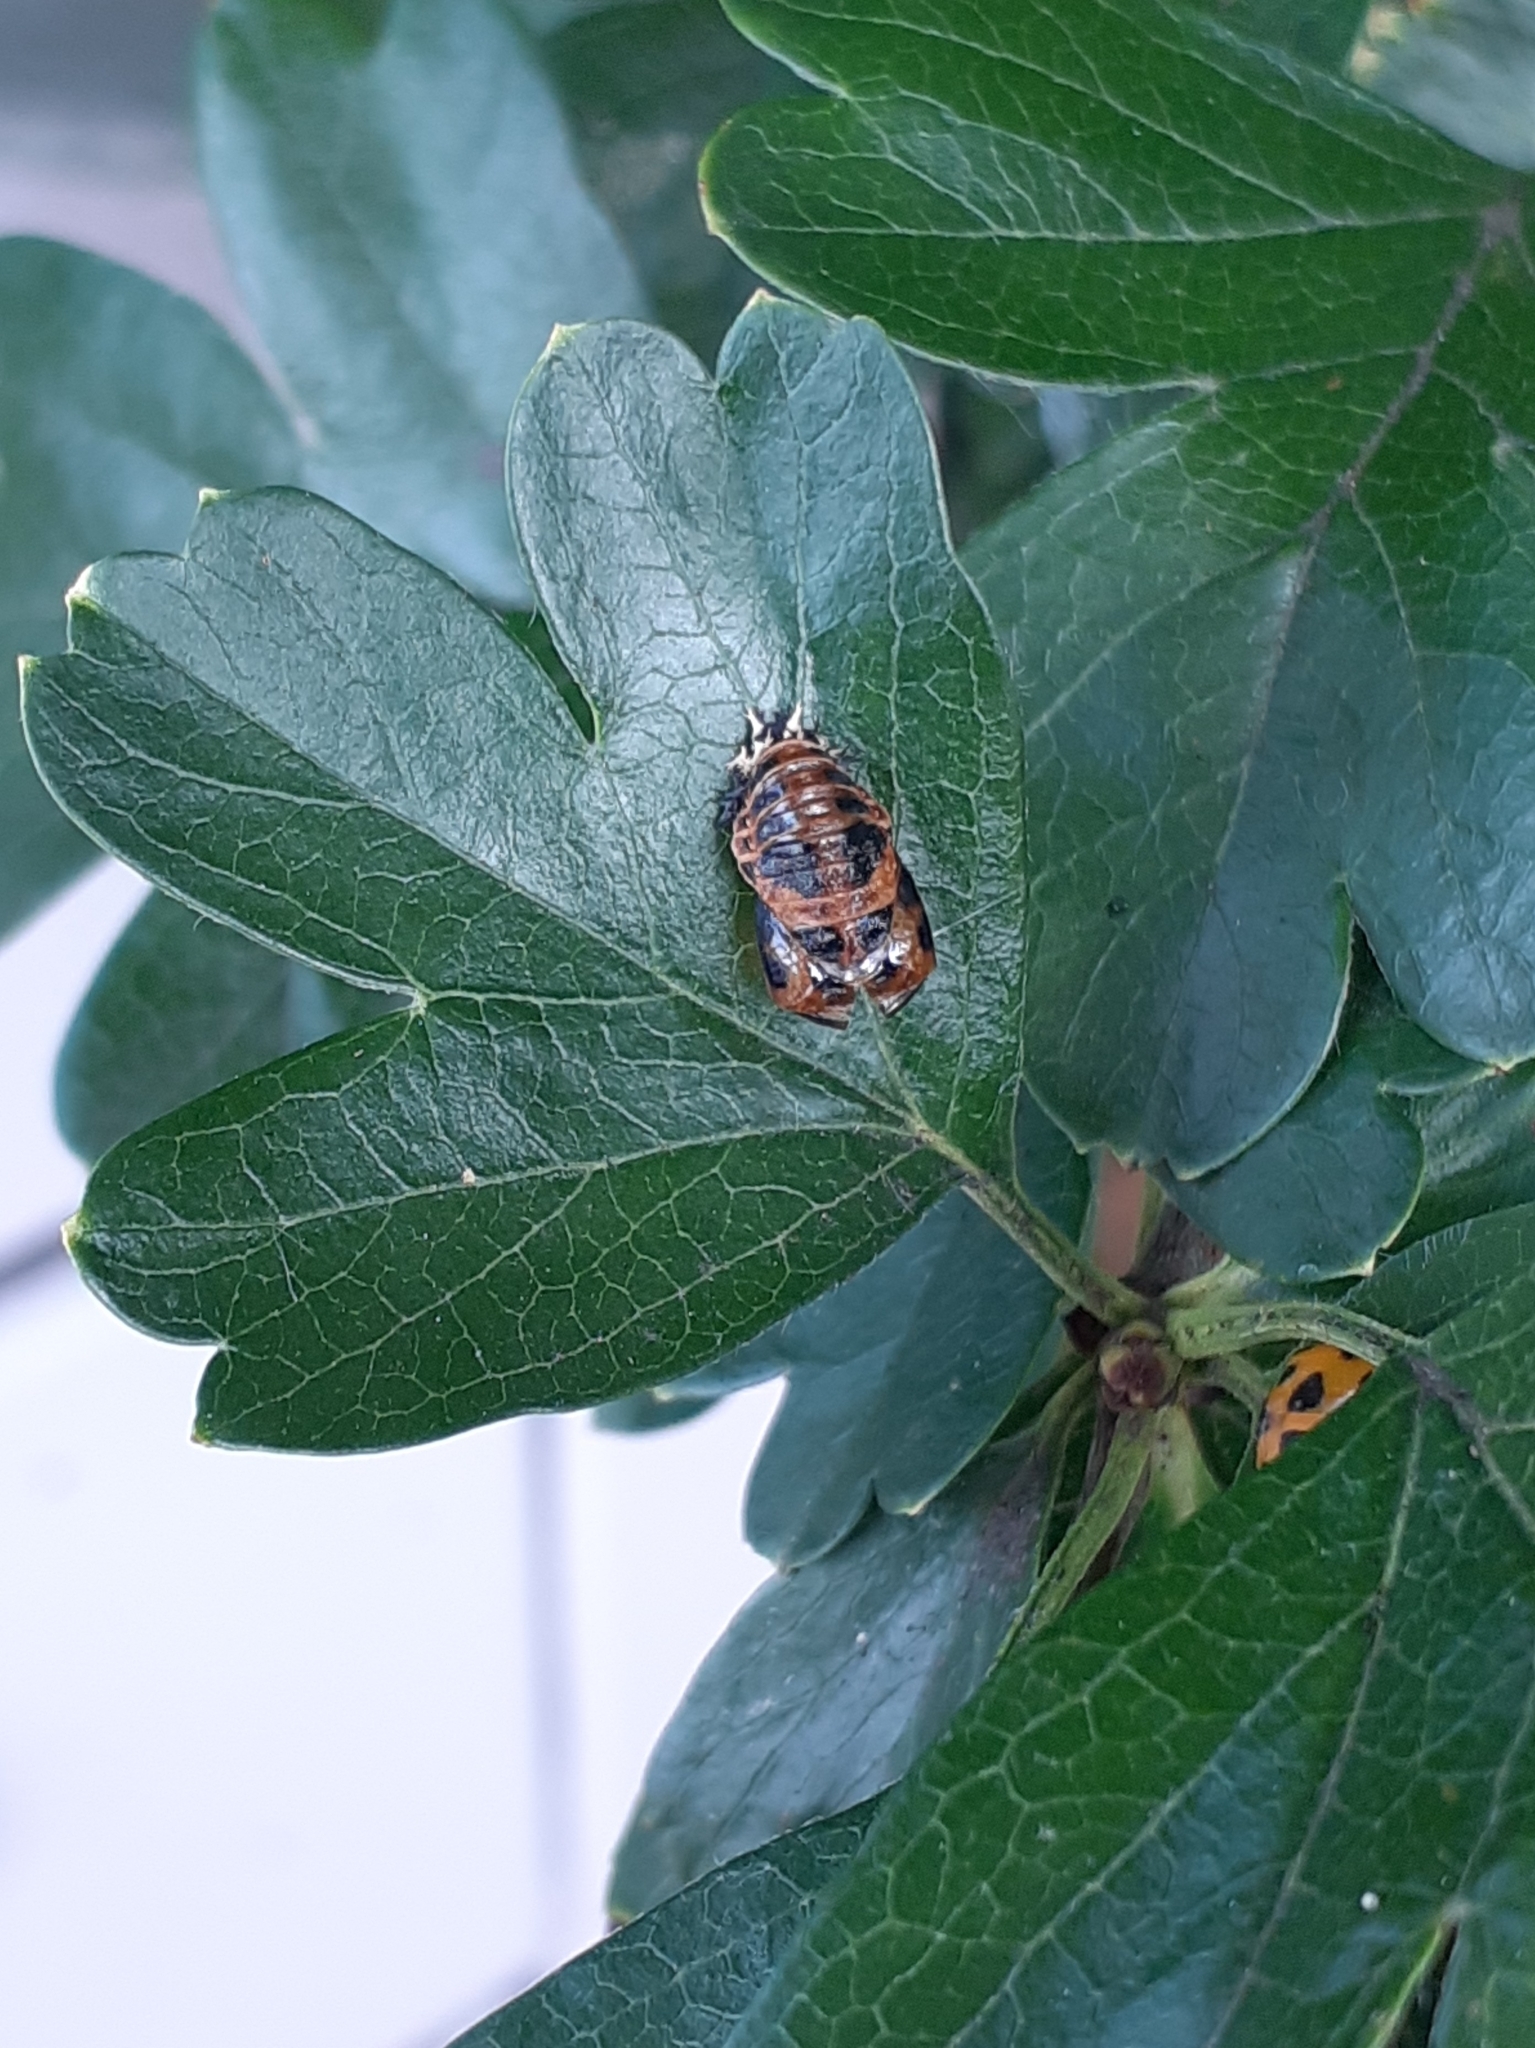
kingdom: Animalia
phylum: Arthropoda
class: Insecta
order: Coleoptera
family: Coccinellidae
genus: Harmonia
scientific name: Harmonia axyridis
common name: Harlequin ladybird
